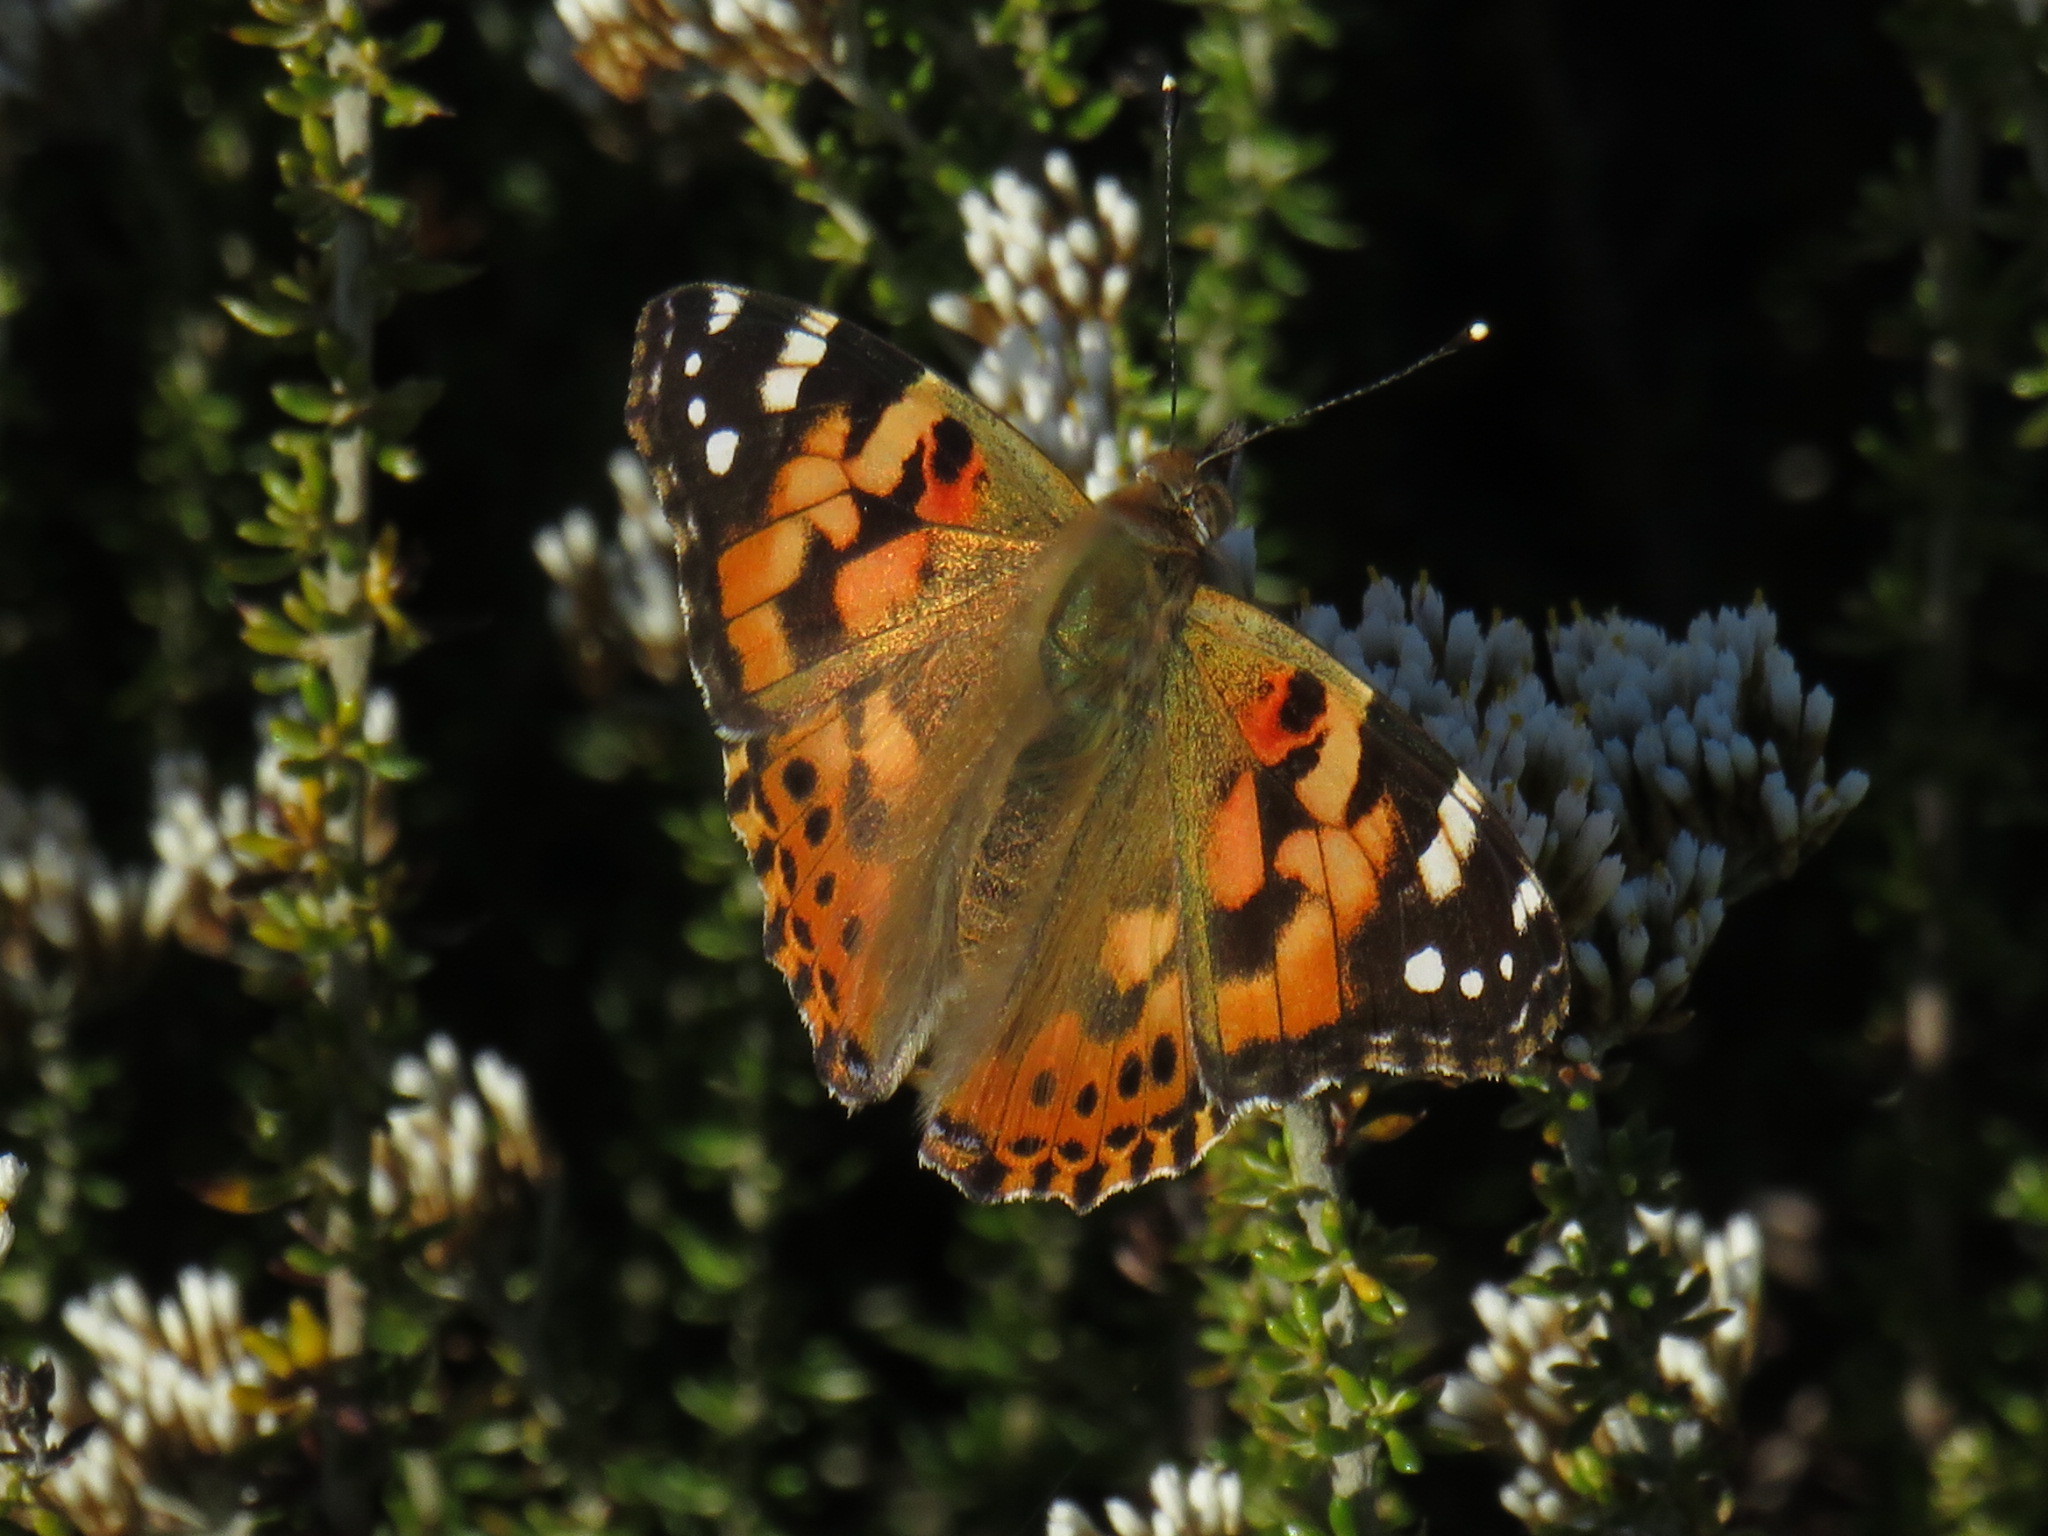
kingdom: Animalia
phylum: Arthropoda
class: Insecta
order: Lepidoptera
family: Nymphalidae
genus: Vanessa
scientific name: Vanessa cardui
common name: Painted lady
